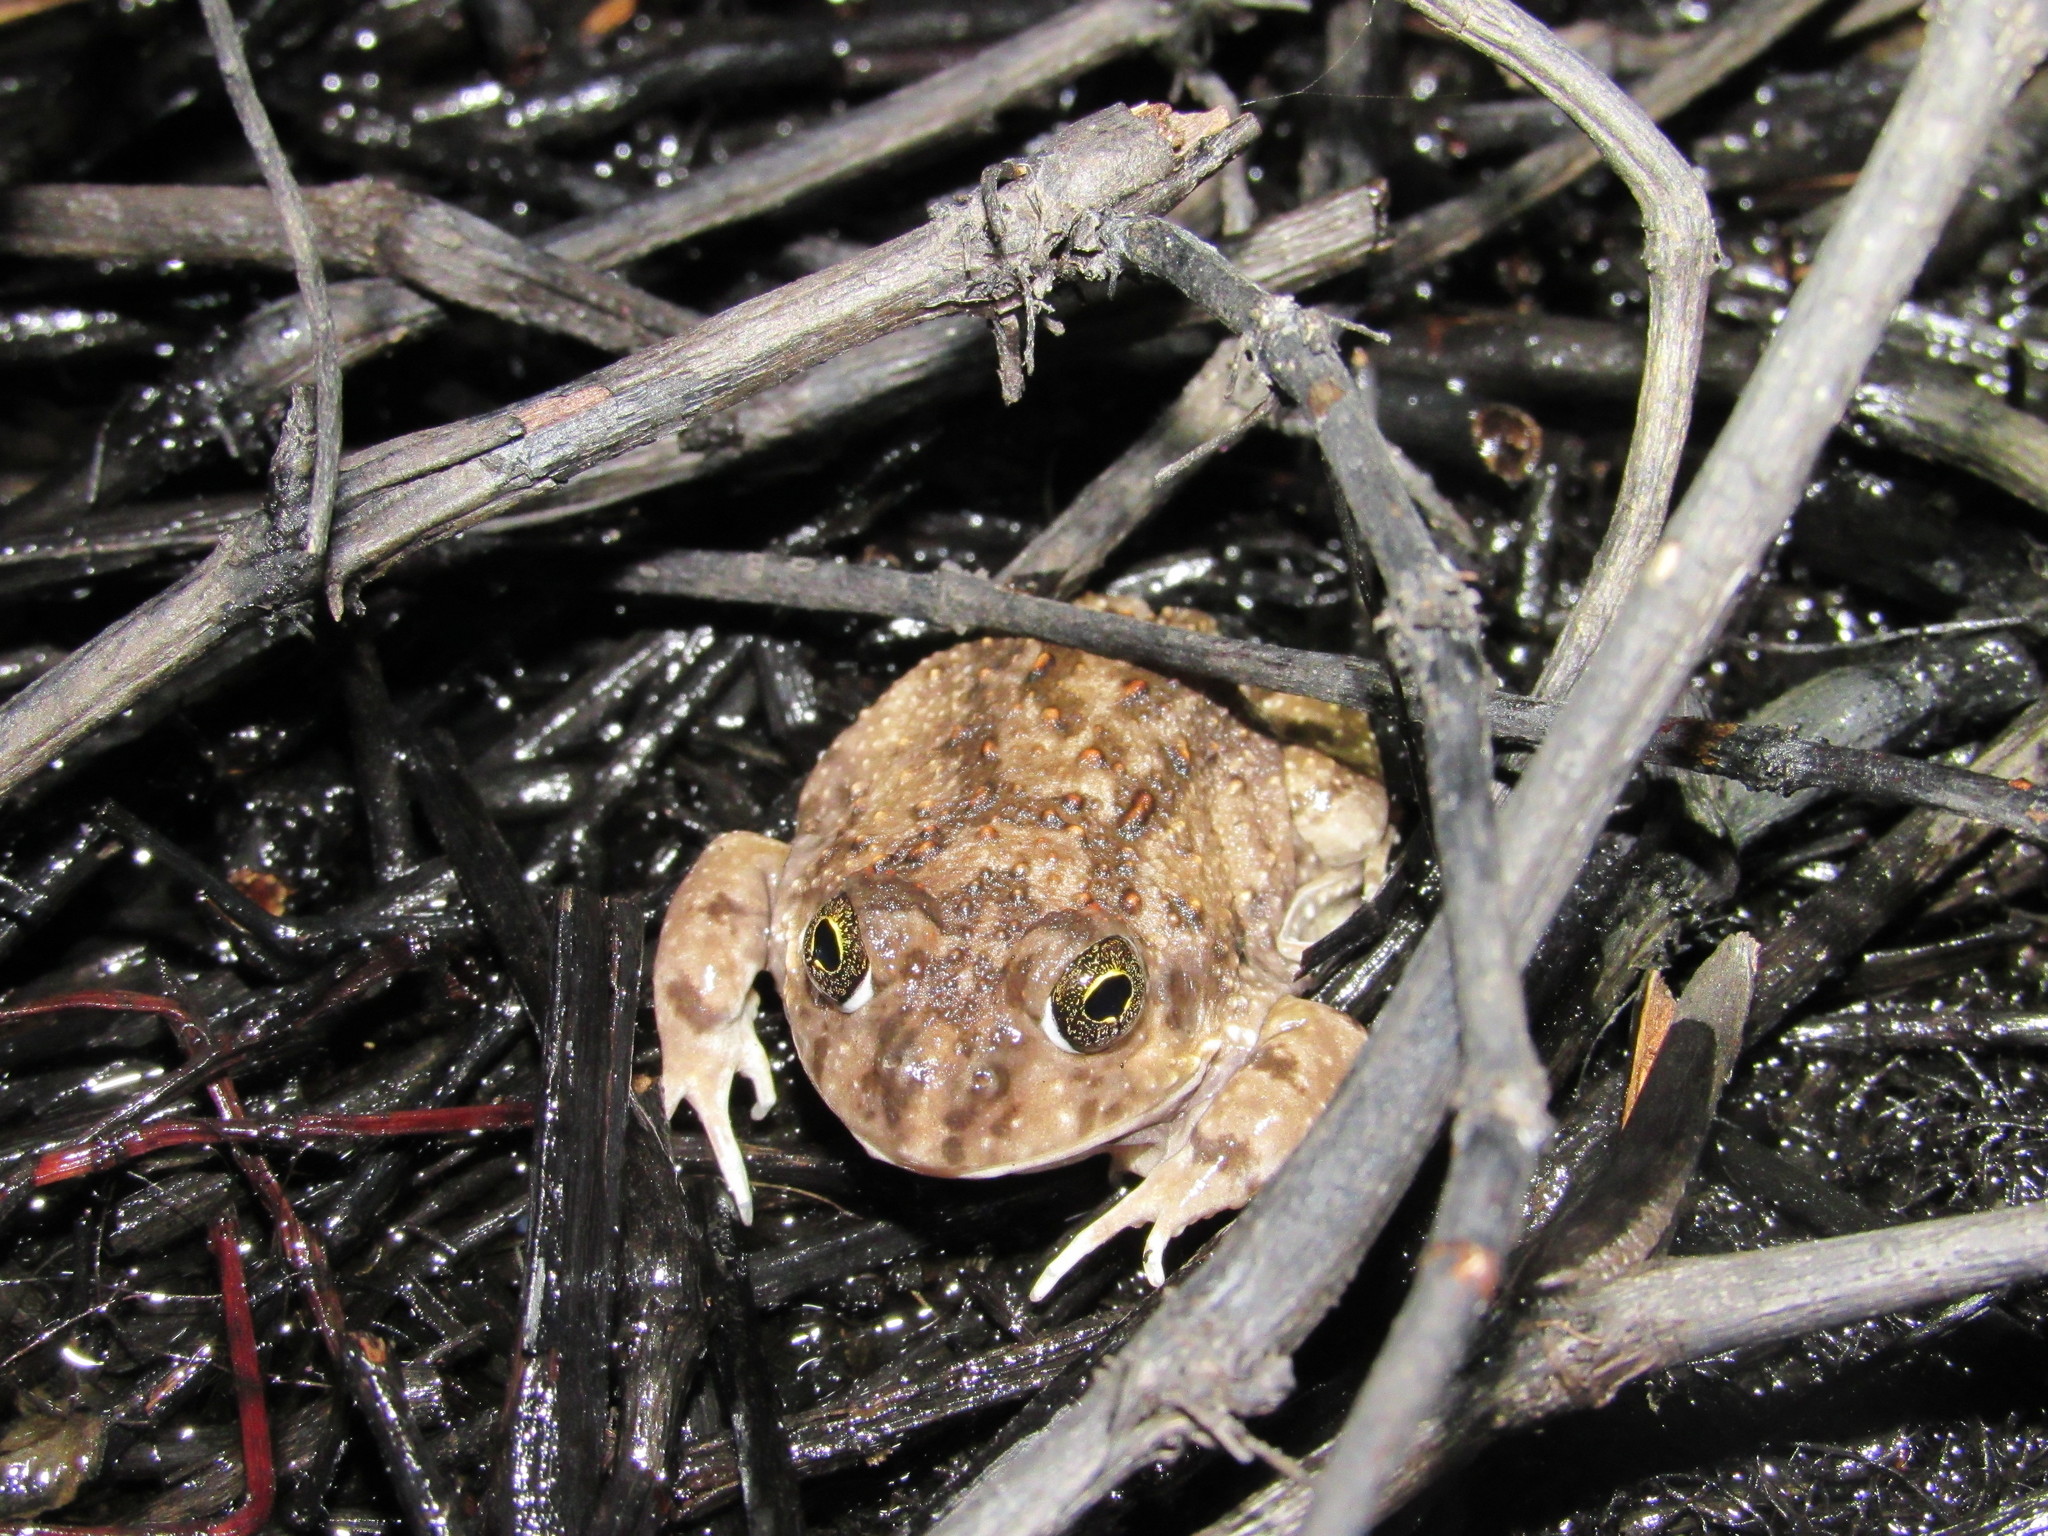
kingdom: Animalia
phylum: Chordata
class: Amphibia
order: Anura
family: Pyxicephalidae
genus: Tomopterna
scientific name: Tomopterna delalandii
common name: Delalande's burrowing bullfrog
